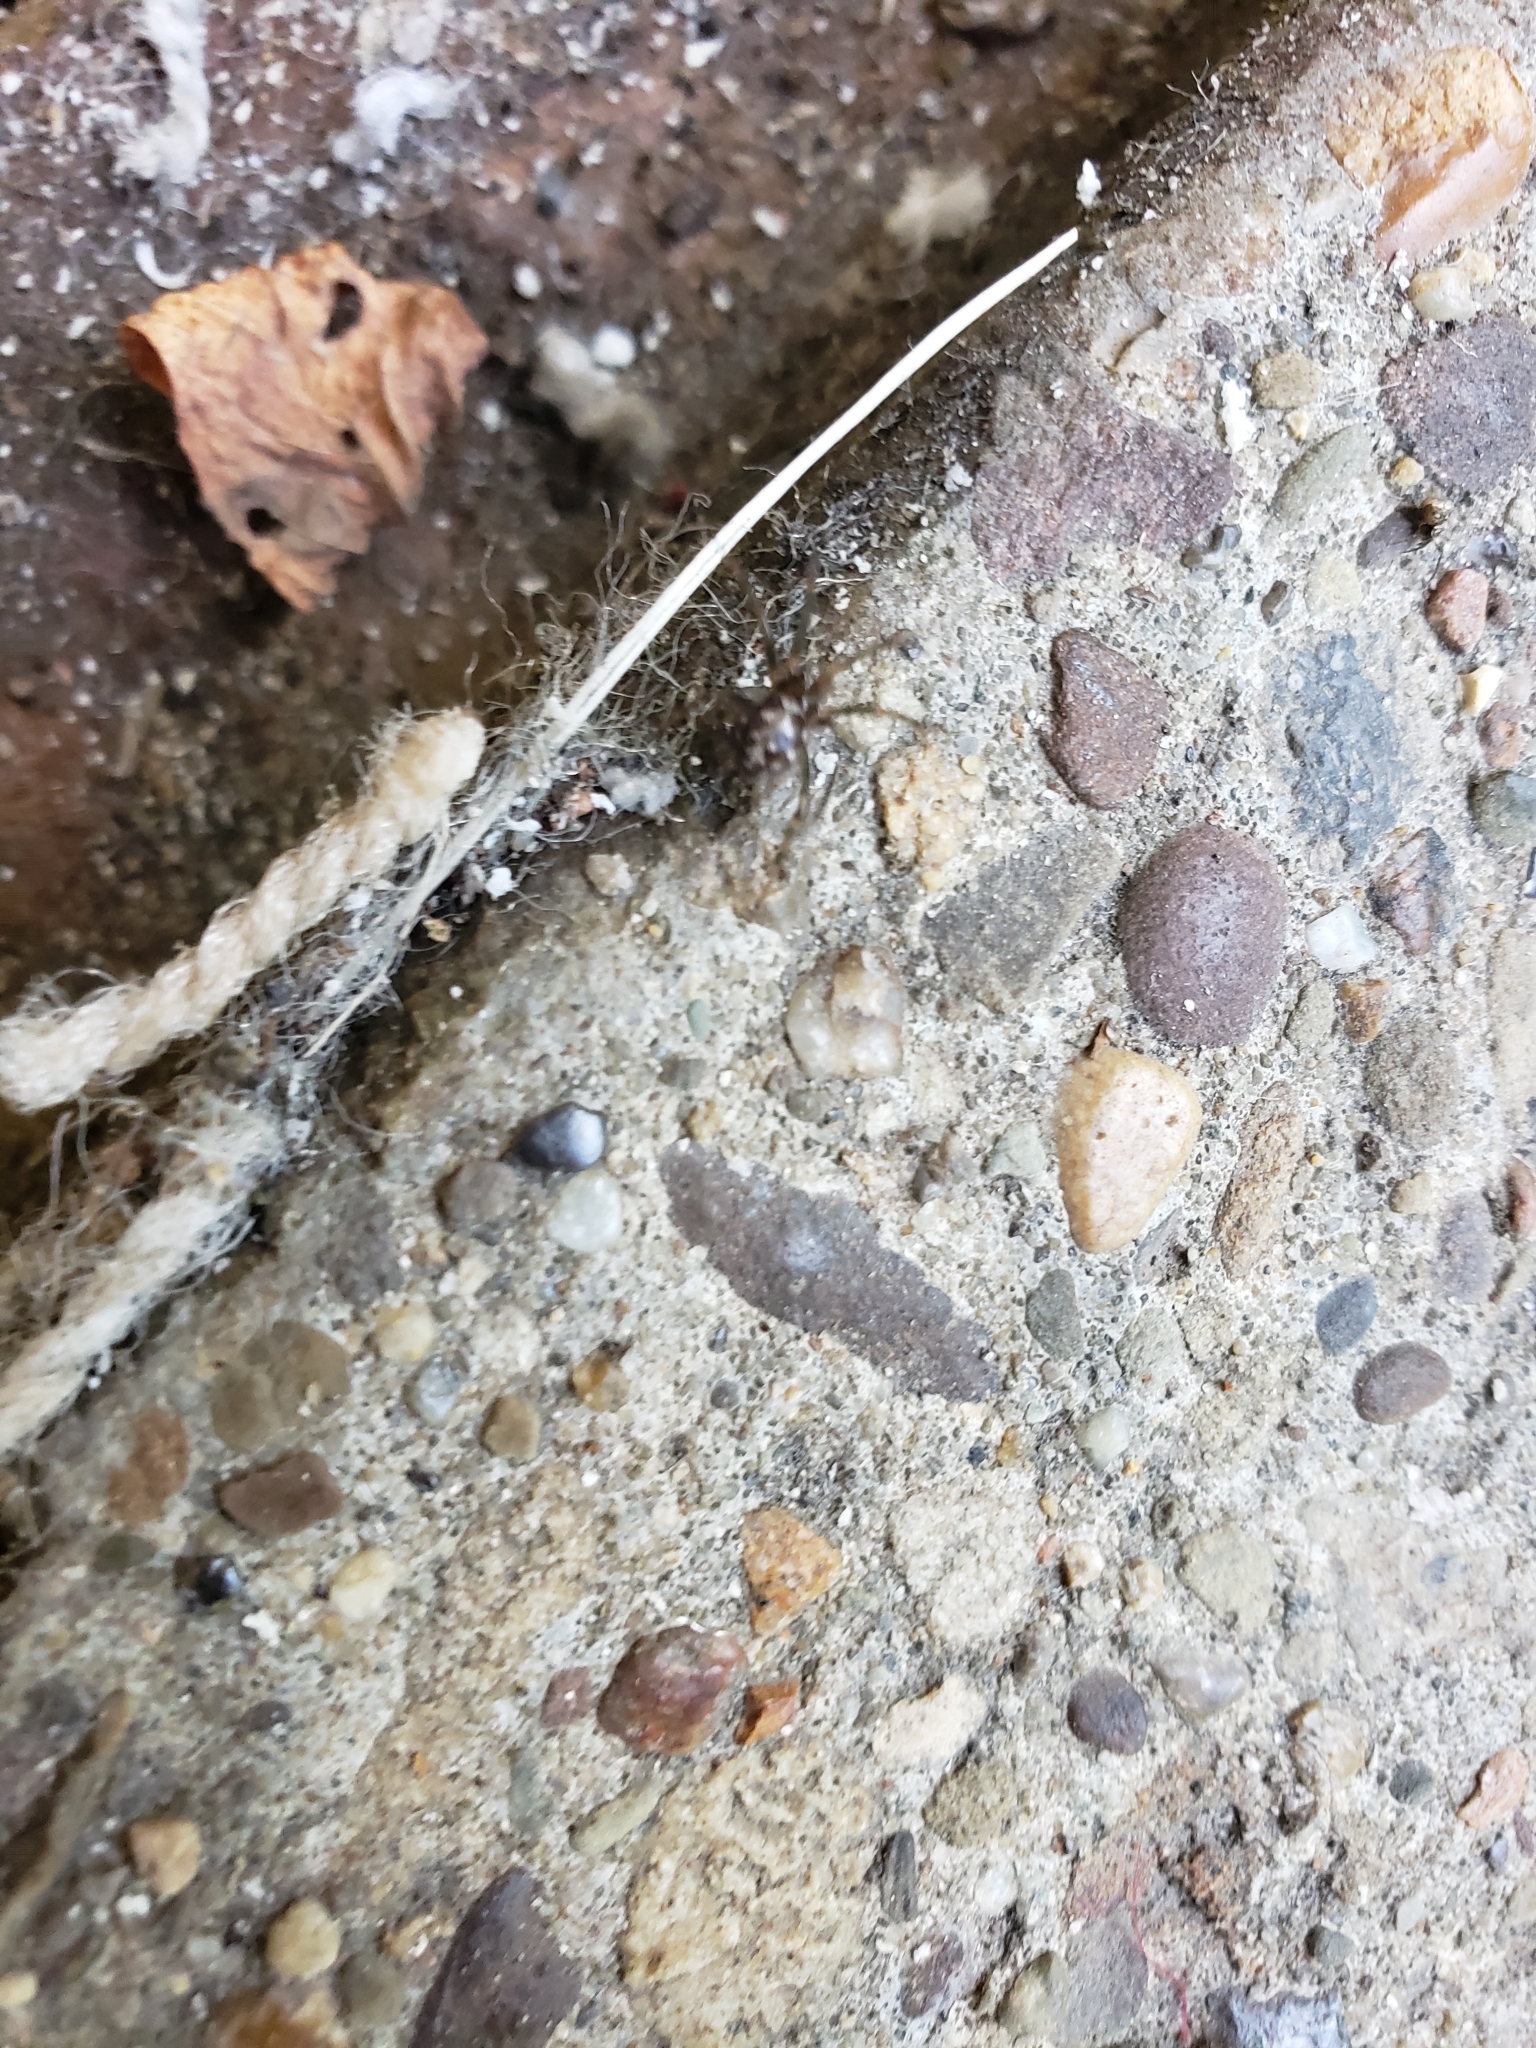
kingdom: Animalia
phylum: Arthropoda
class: Arachnida
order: Araneae
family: Theridiidae
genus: Steatoda
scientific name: Steatoda triangulosa
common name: Triangulate bud spider
